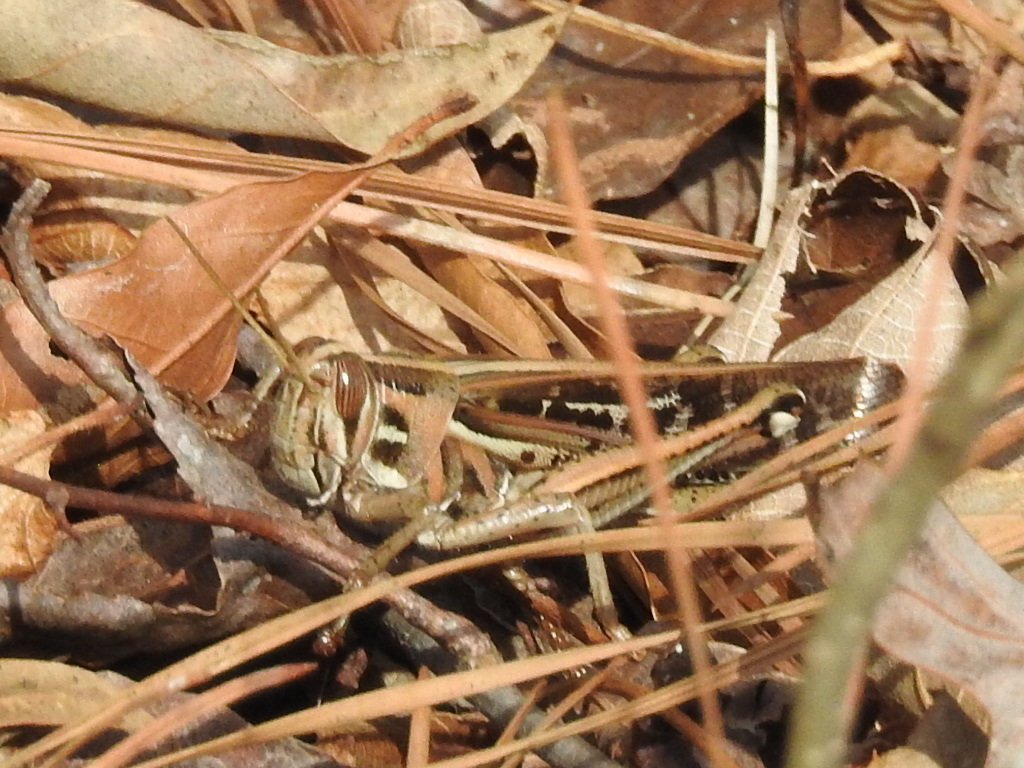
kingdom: Animalia
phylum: Arthropoda
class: Insecta
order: Orthoptera
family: Acrididae
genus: Schistocerca
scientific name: Schistocerca americana
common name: American bird locust
